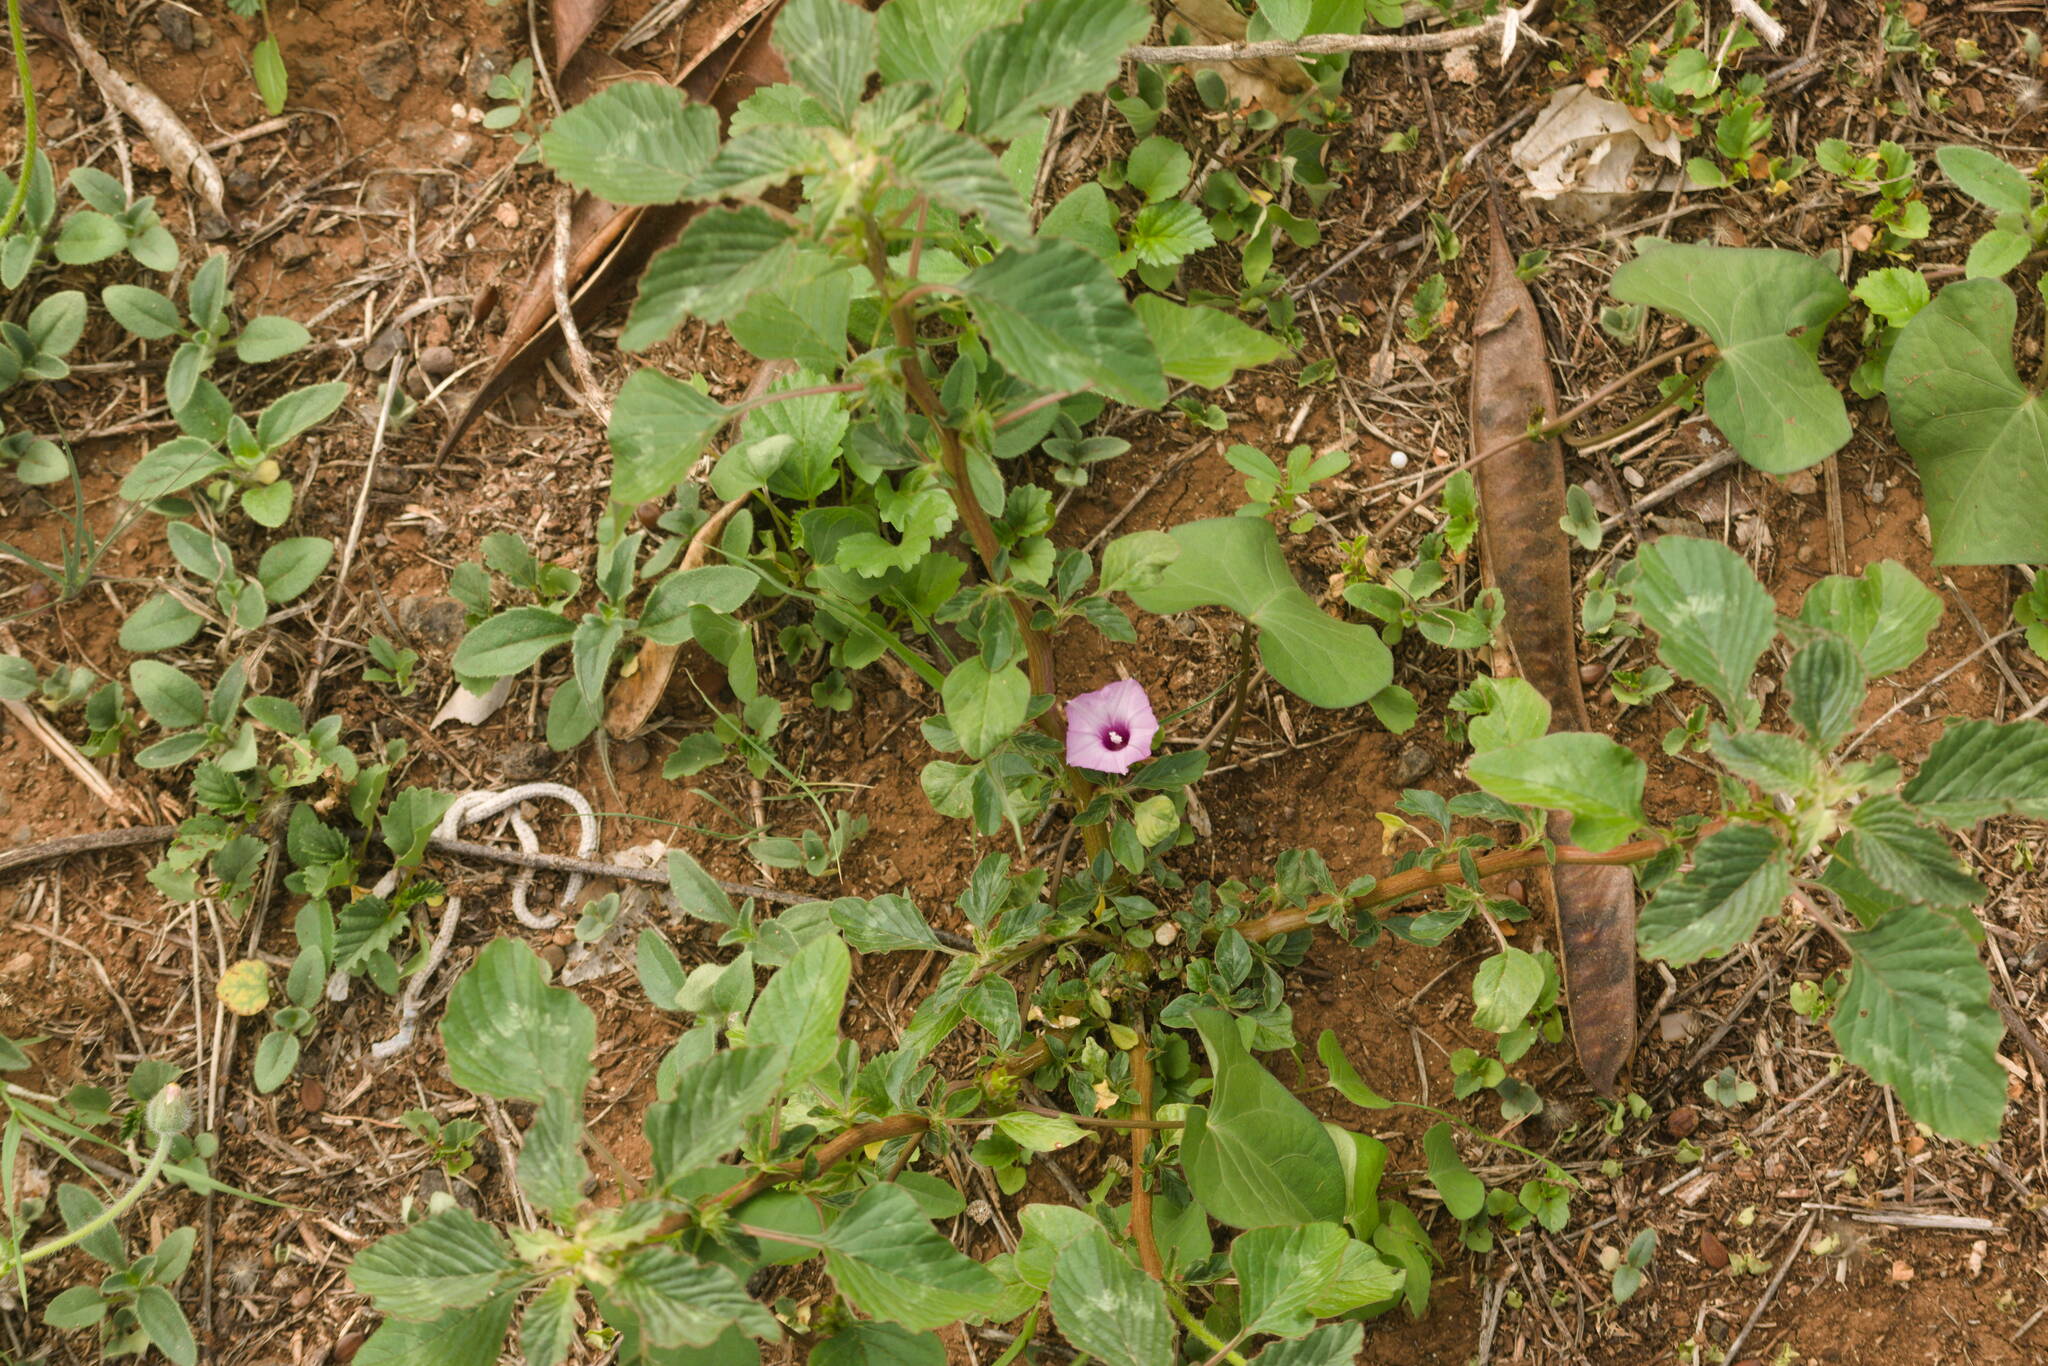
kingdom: Plantae
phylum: Tracheophyta
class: Magnoliopsida
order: Caryophyllales
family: Amaranthaceae
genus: Amaranthus
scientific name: Amaranthus spinosus
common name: Spiny amaranth
